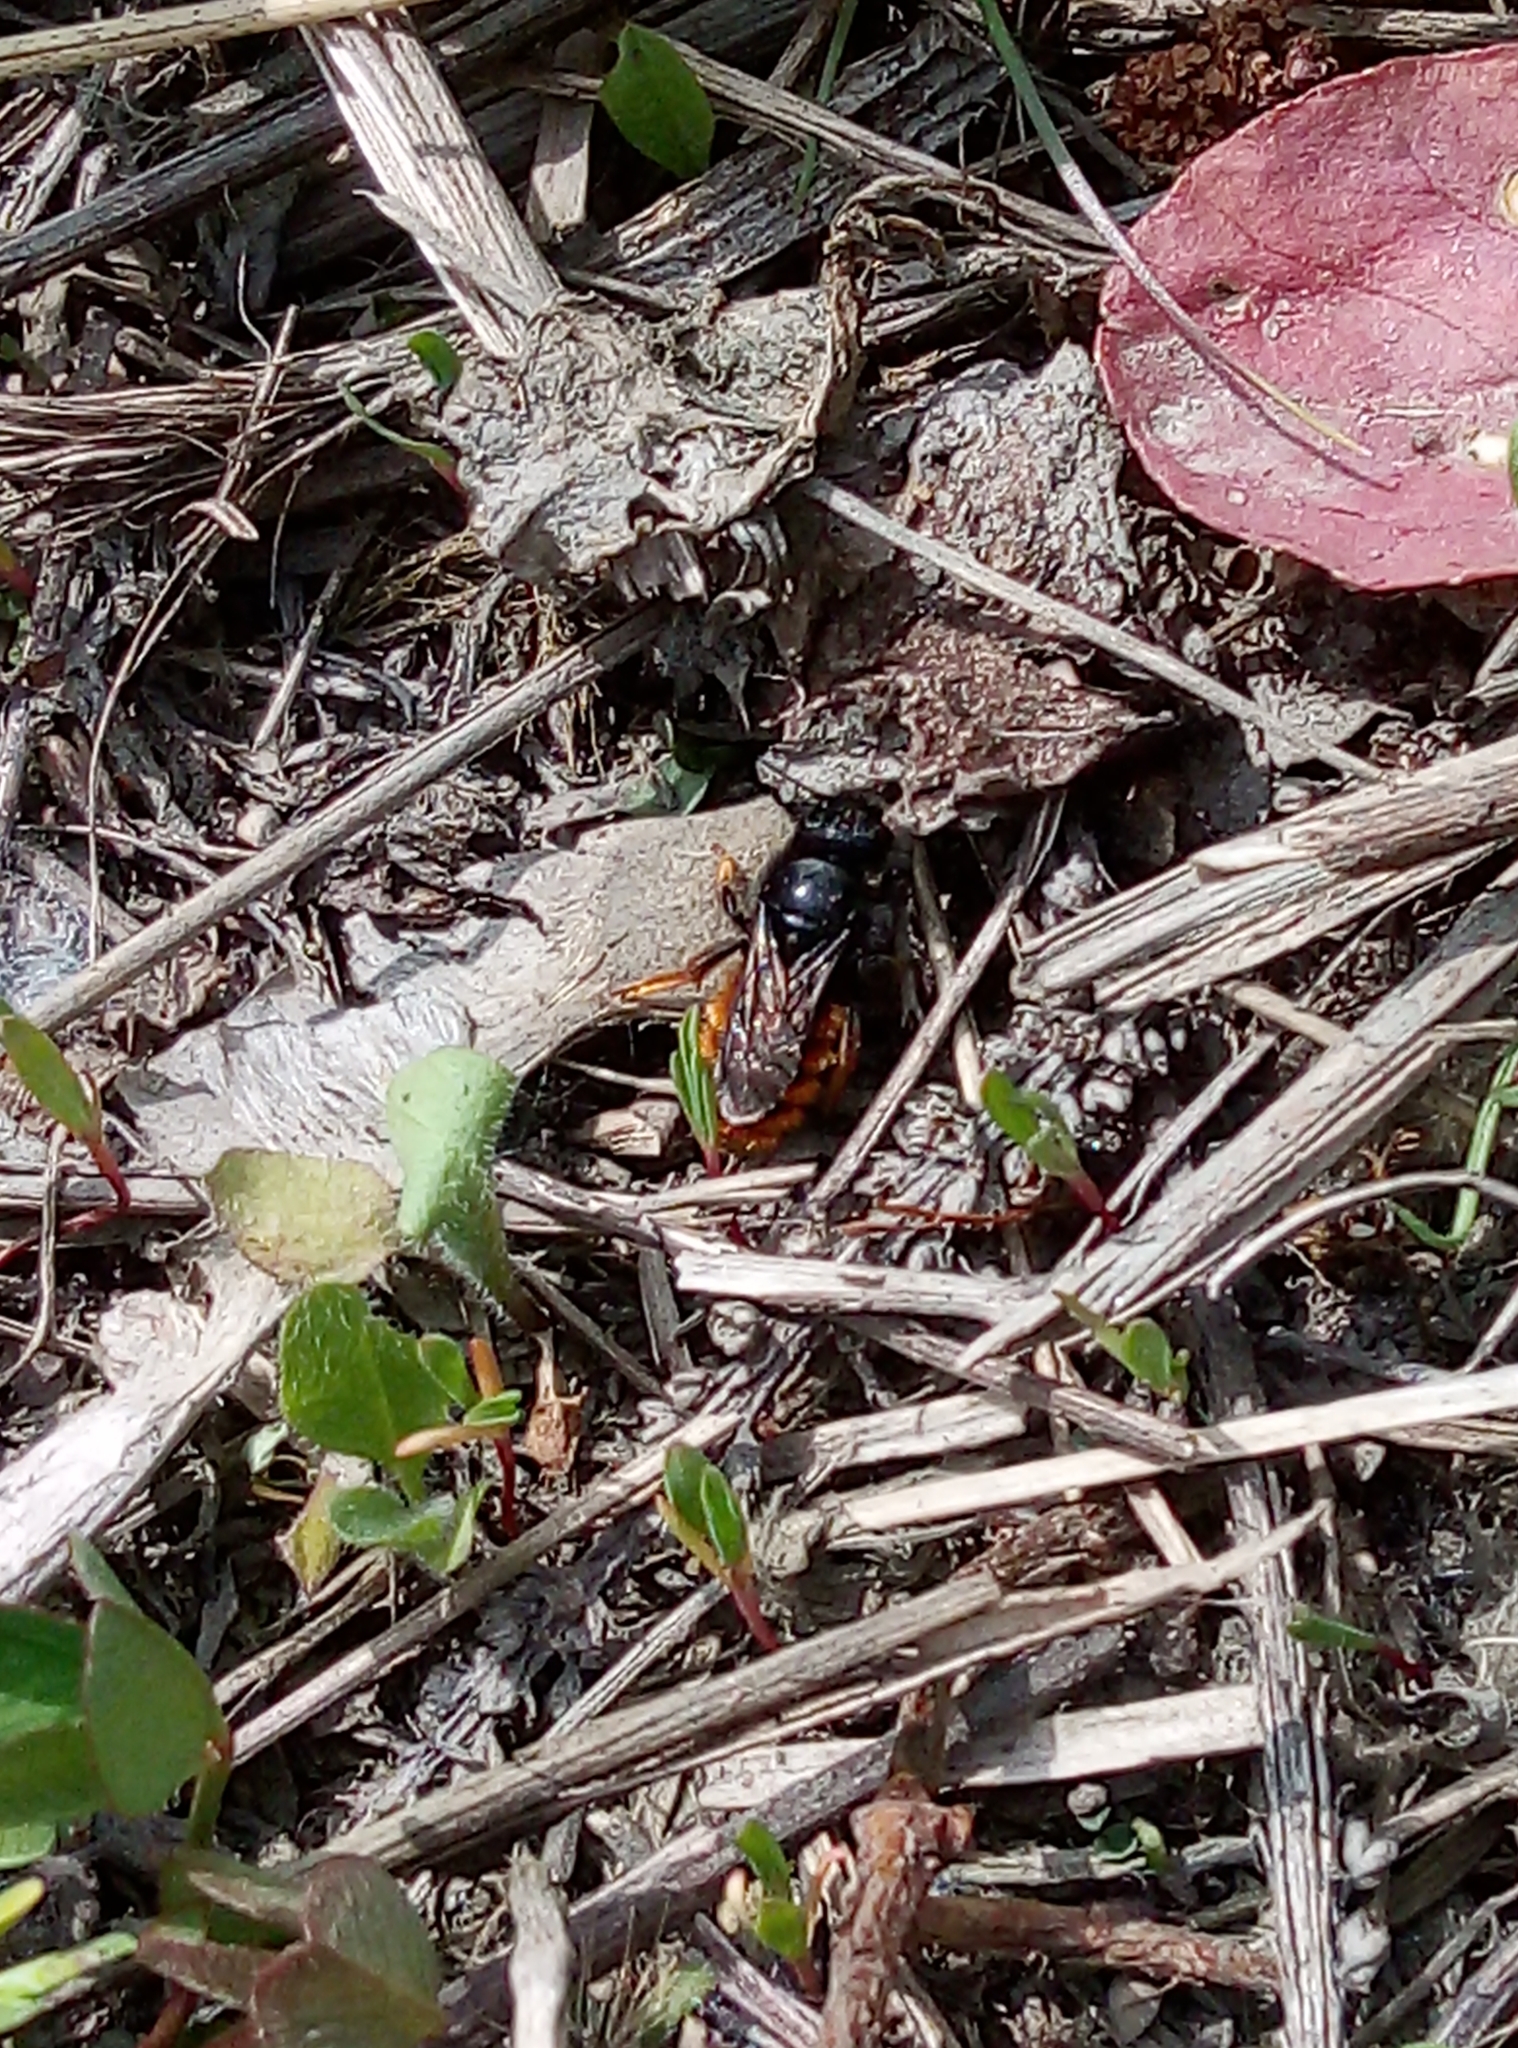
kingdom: Animalia
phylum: Arthropoda
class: Insecta
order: Hymenoptera
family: Megachilidae
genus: Osmia
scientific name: Osmia bicolor
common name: Red-tailed mason bee
